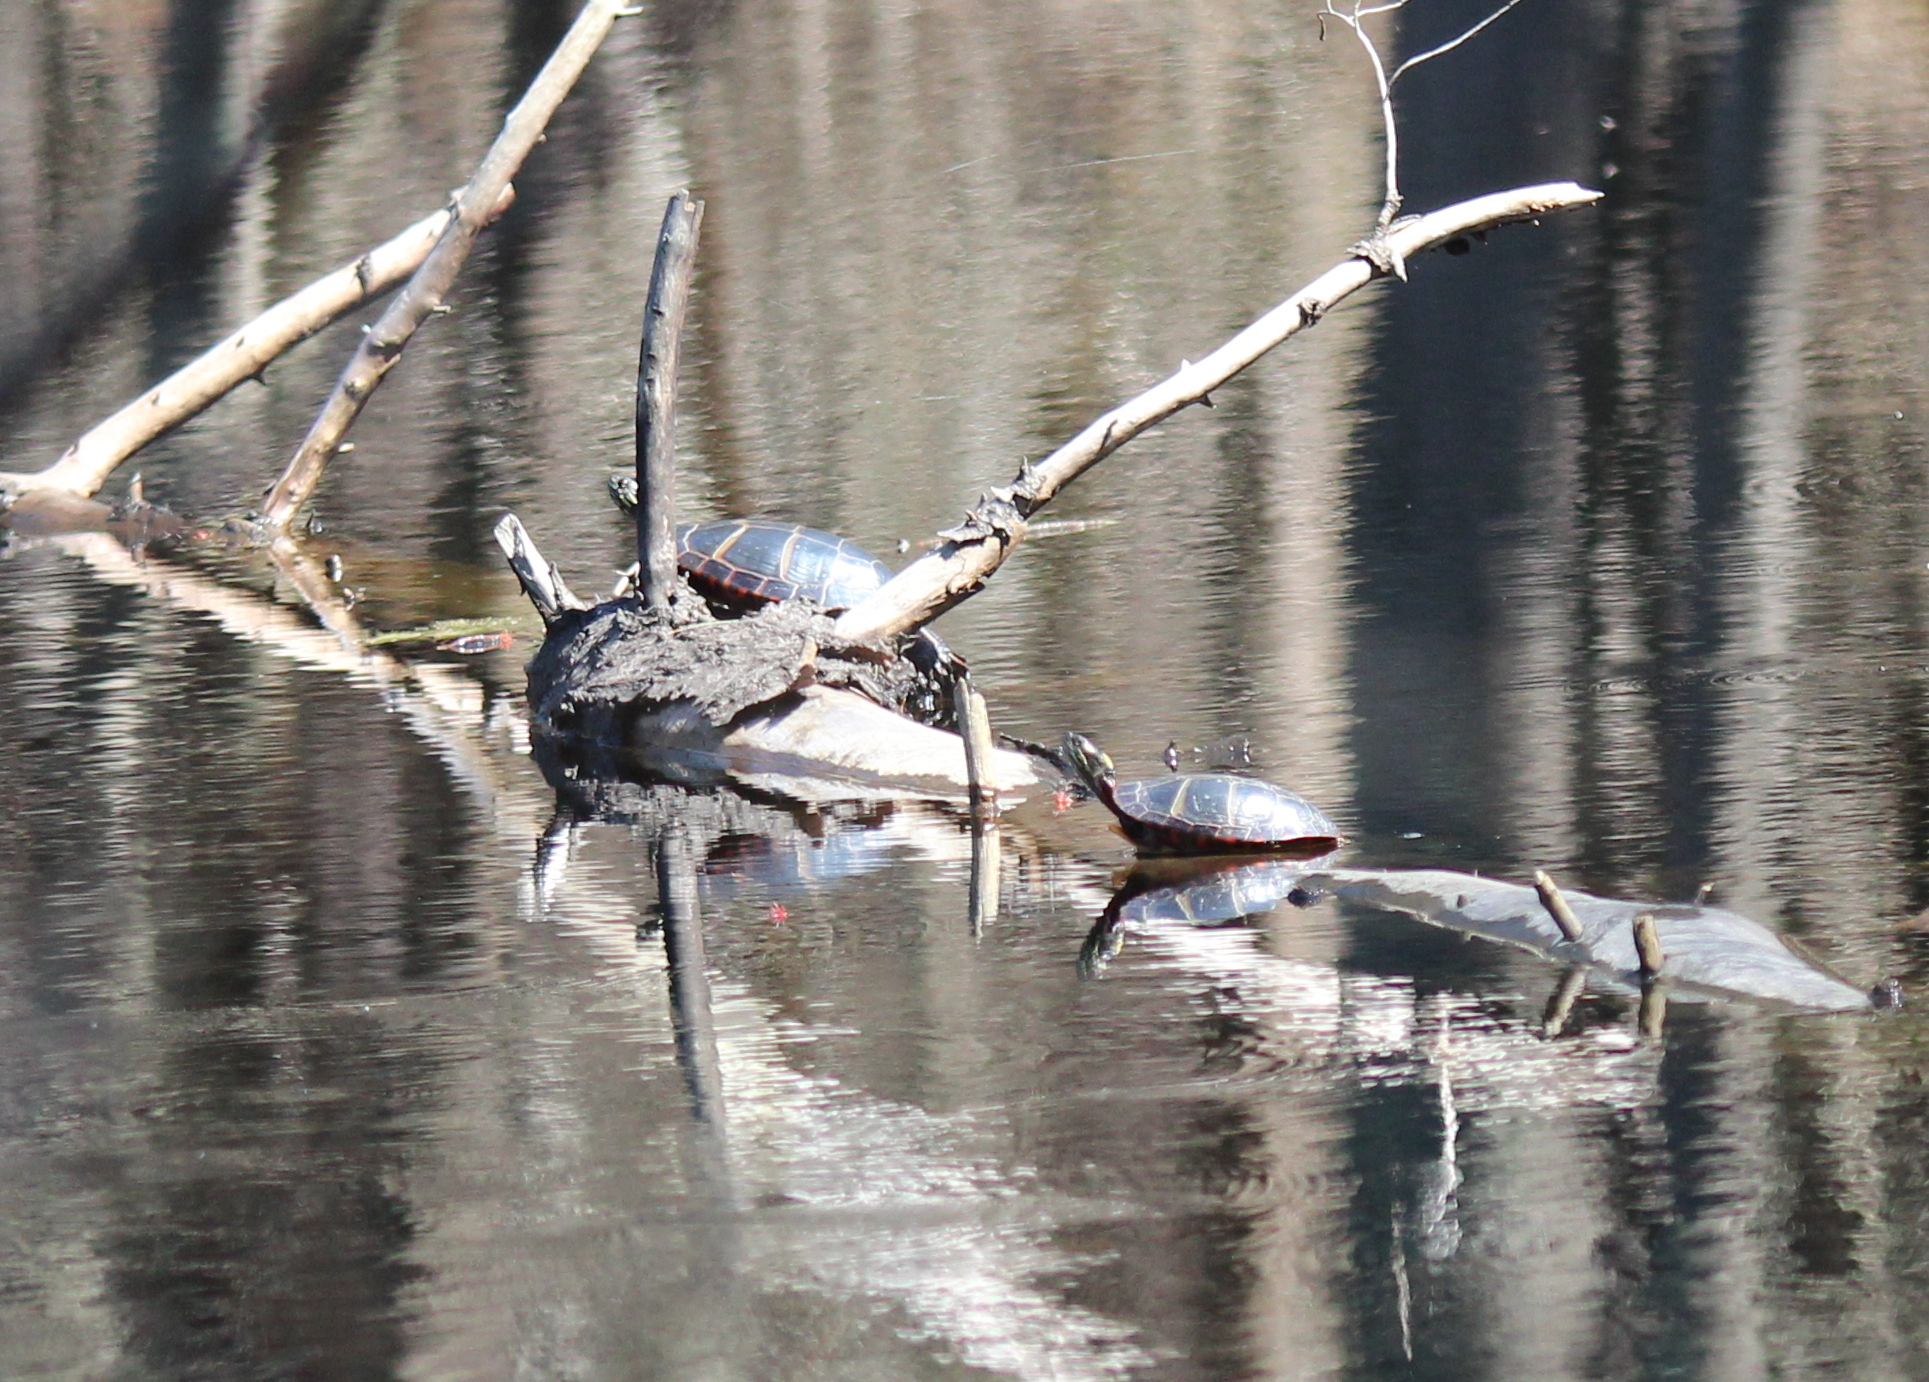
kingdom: Animalia
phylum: Chordata
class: Testudines
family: Emydidae
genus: Chrysemys
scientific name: Chrysemys picta
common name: Painted turtle
